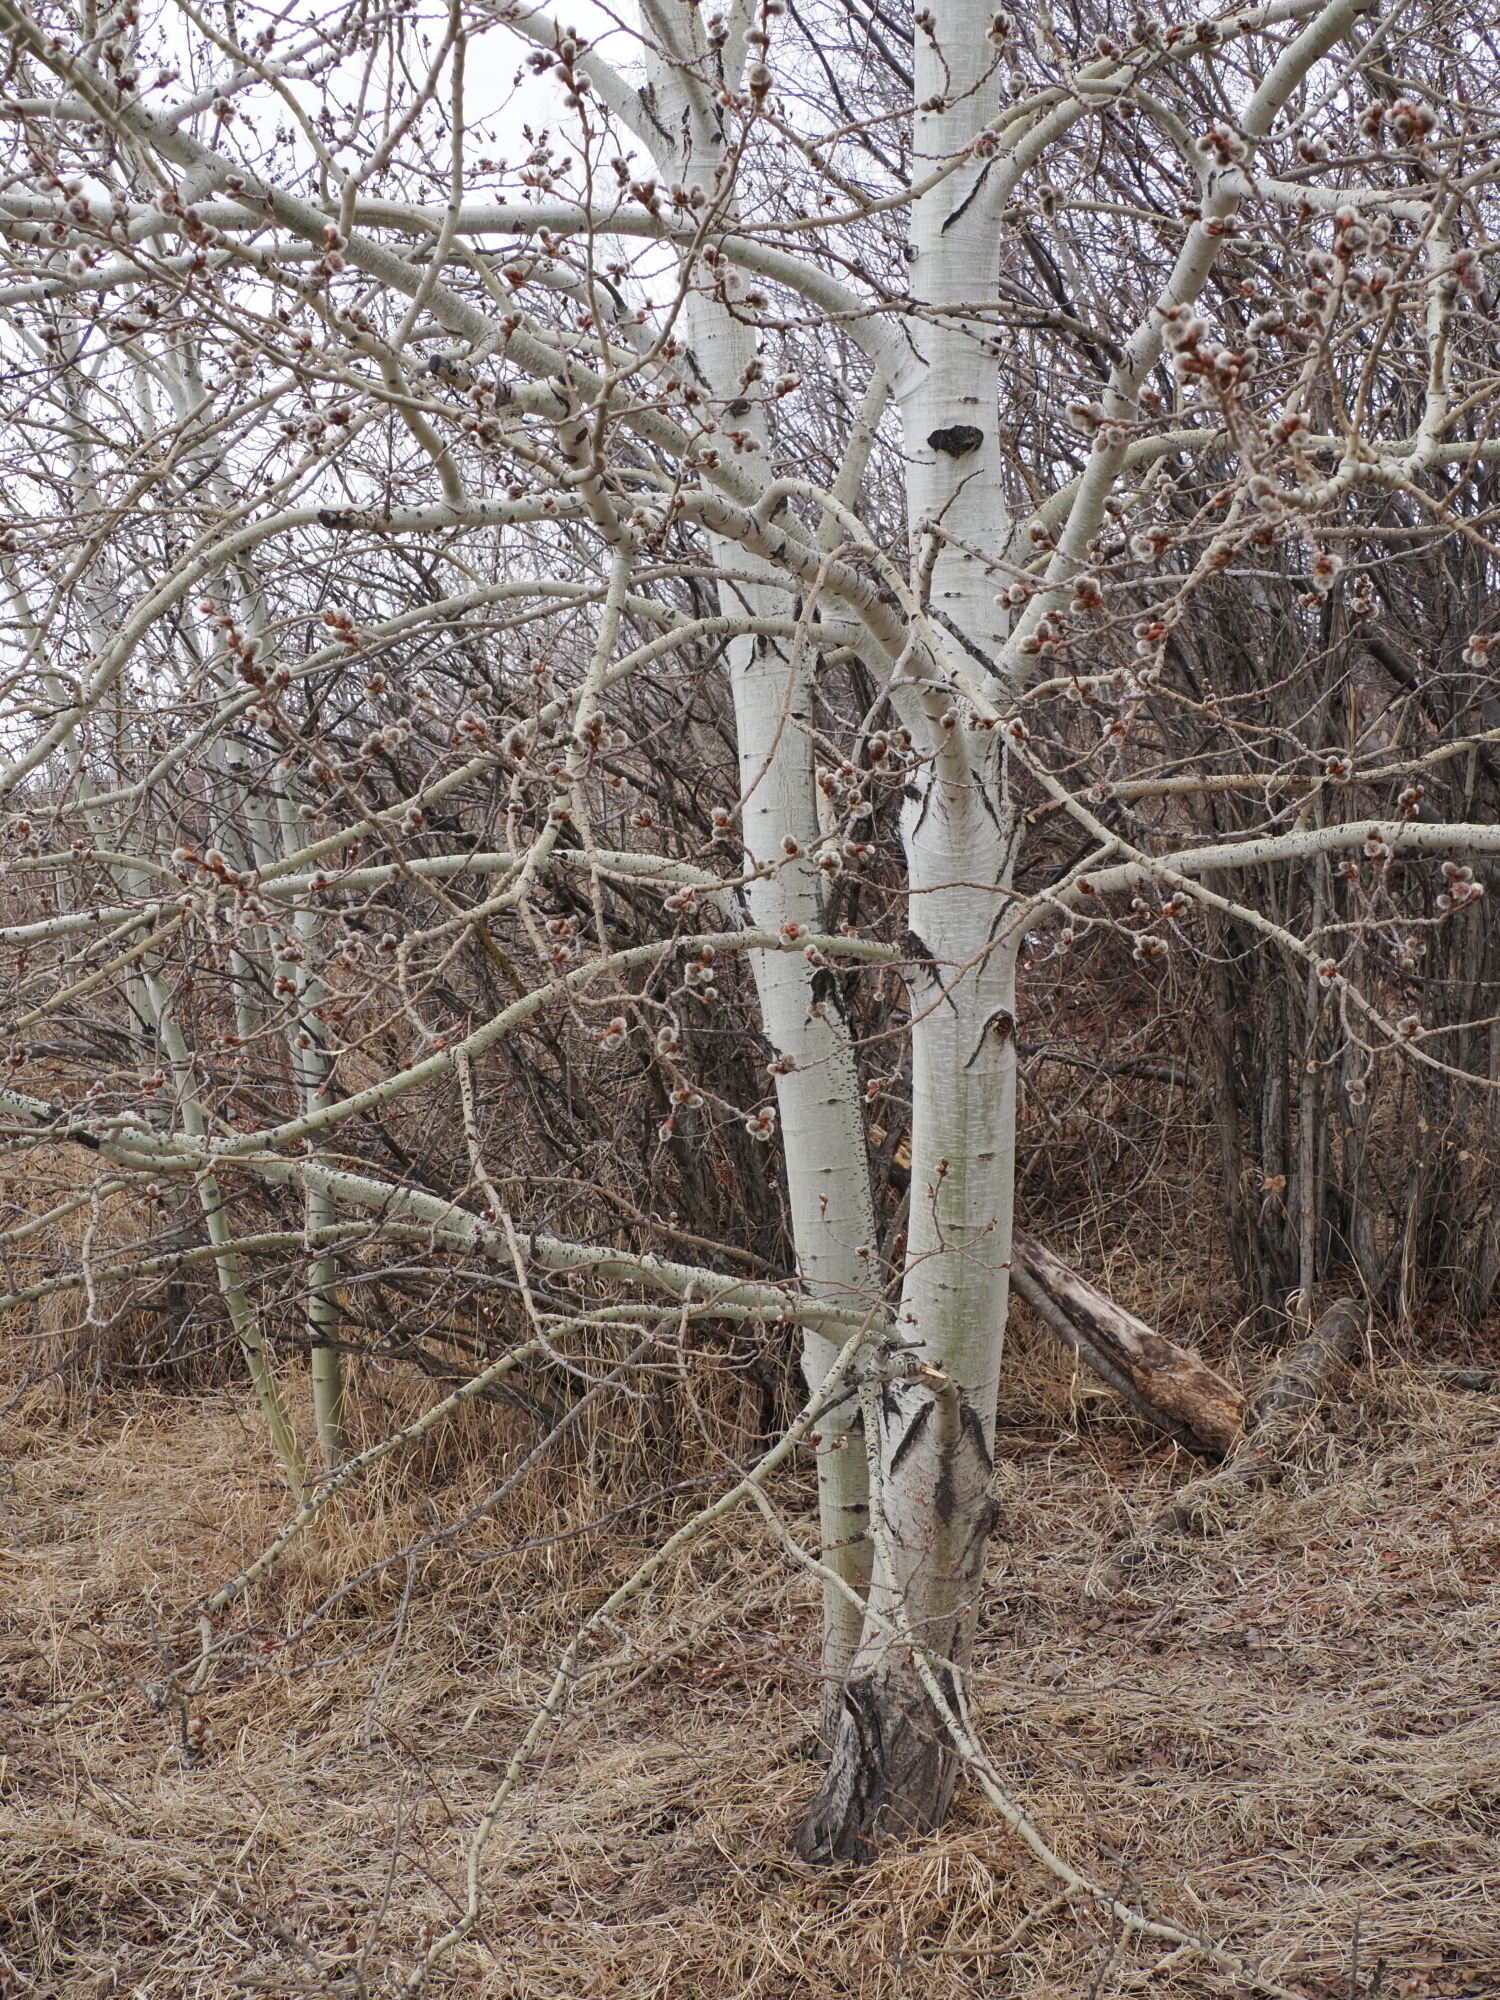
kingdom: Plantae
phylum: Tracheophyta
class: Magnoliopsida
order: Malpighiales
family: Salicaceae
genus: Populus
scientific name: Populus tremuloides
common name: Quaking aspen
